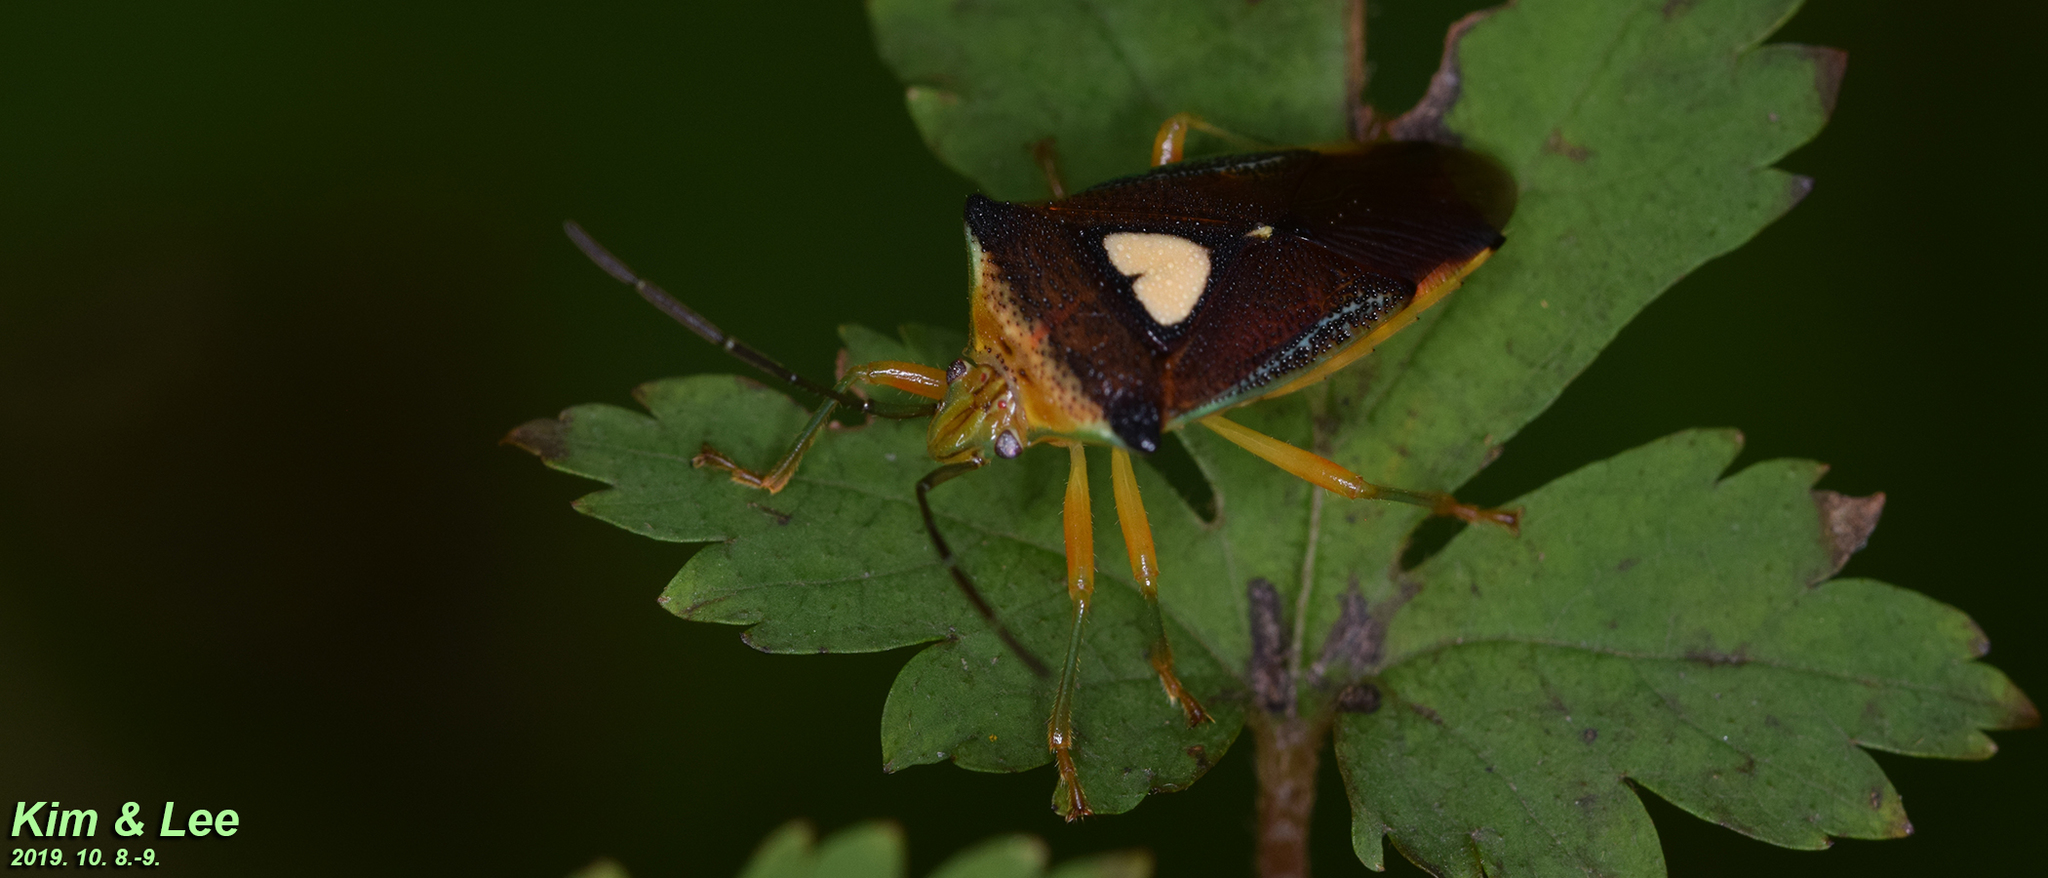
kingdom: Animalia
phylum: Arthropoda
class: Insecta
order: Hemiptera
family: Acanthosomatidae
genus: Sastragala
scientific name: Sastragala esakii
